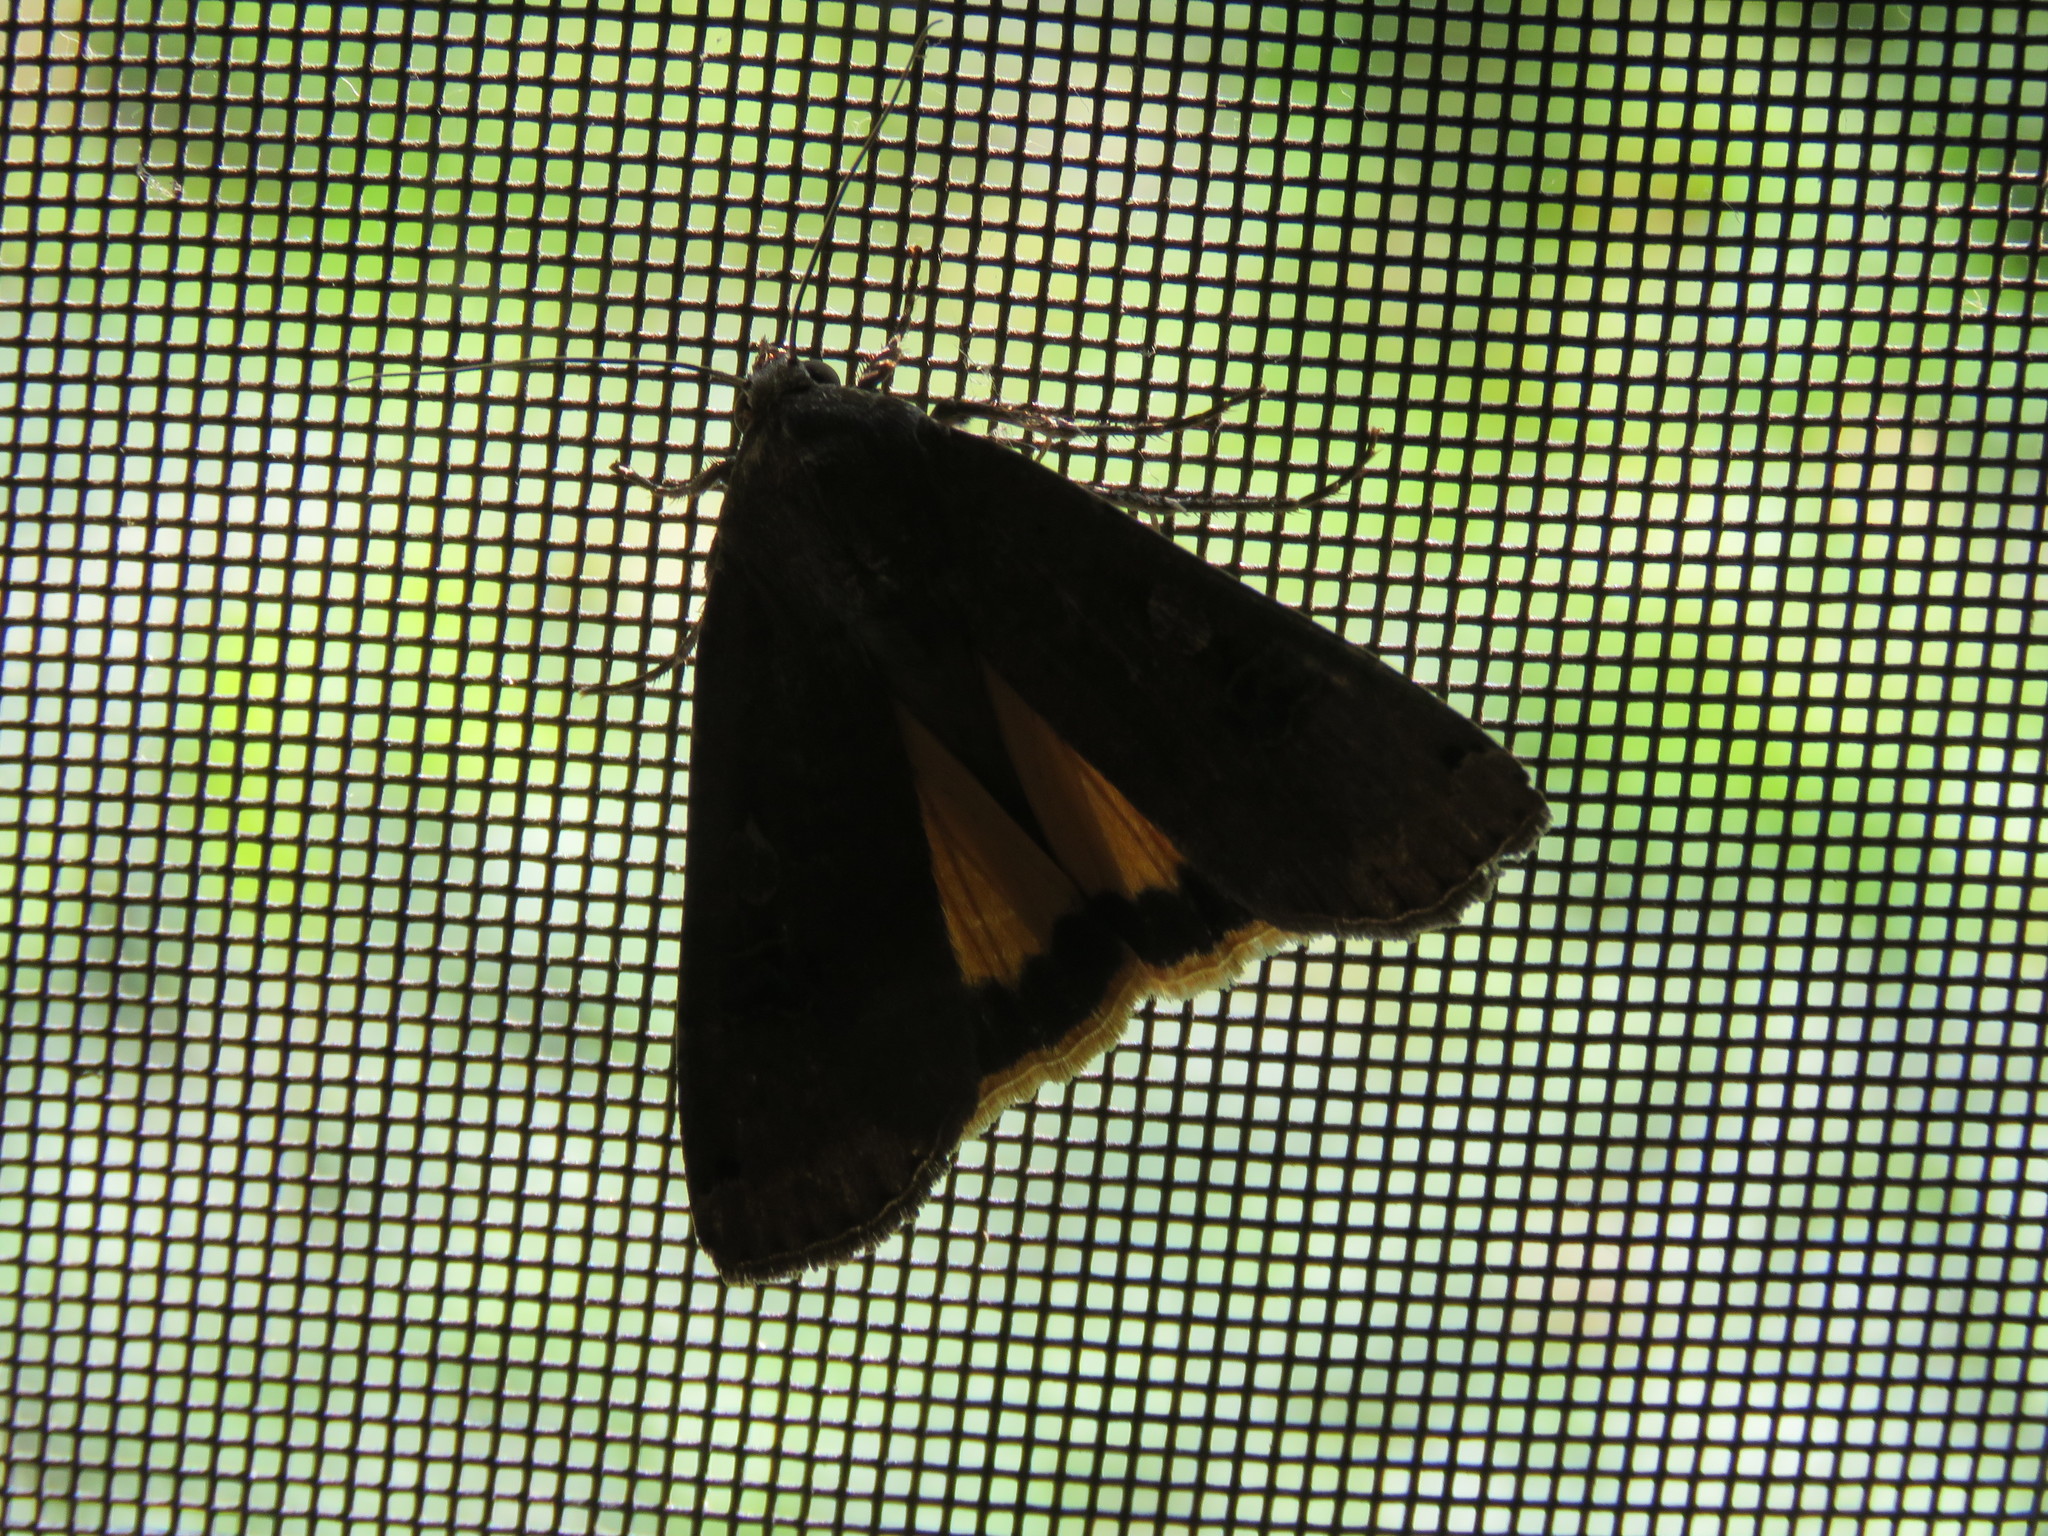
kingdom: Animalia
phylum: Arthropoda
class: Insecta
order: Lepidoptera
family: Noctuidae
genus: Noctua
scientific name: Noctua pronuba
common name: Large yellow underwing
